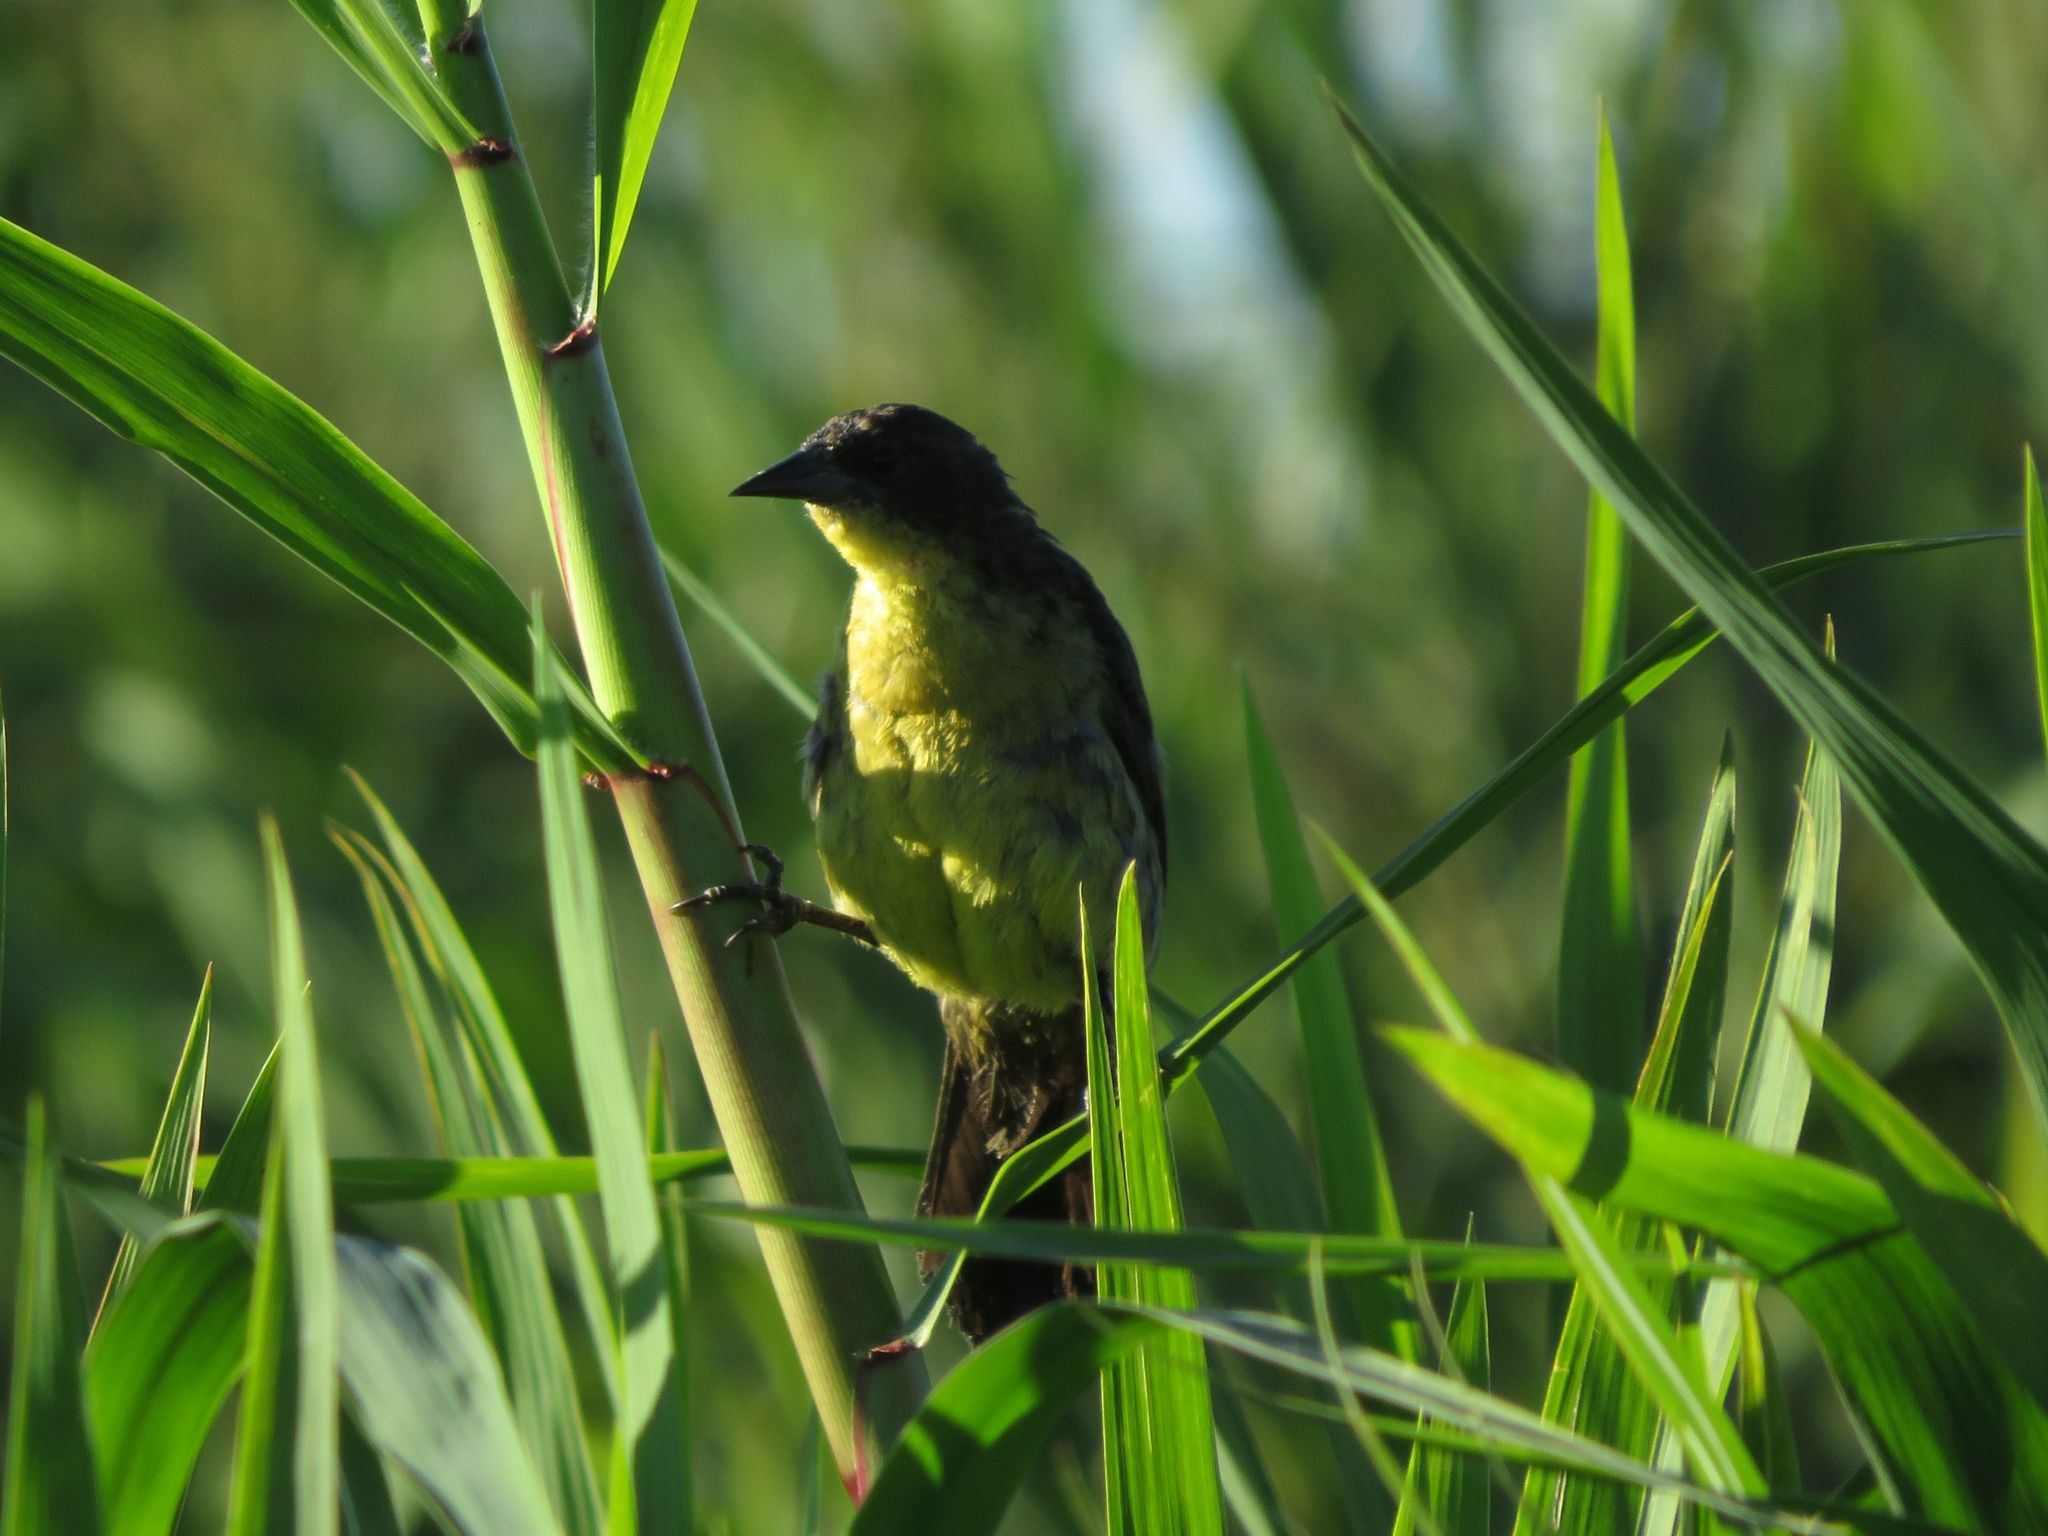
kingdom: Animalia
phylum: Chordata
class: Aves
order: Passeriformes
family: Icteridae
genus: Agelasticus
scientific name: Agelasticus cyanopus
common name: Unicolored blackbird
